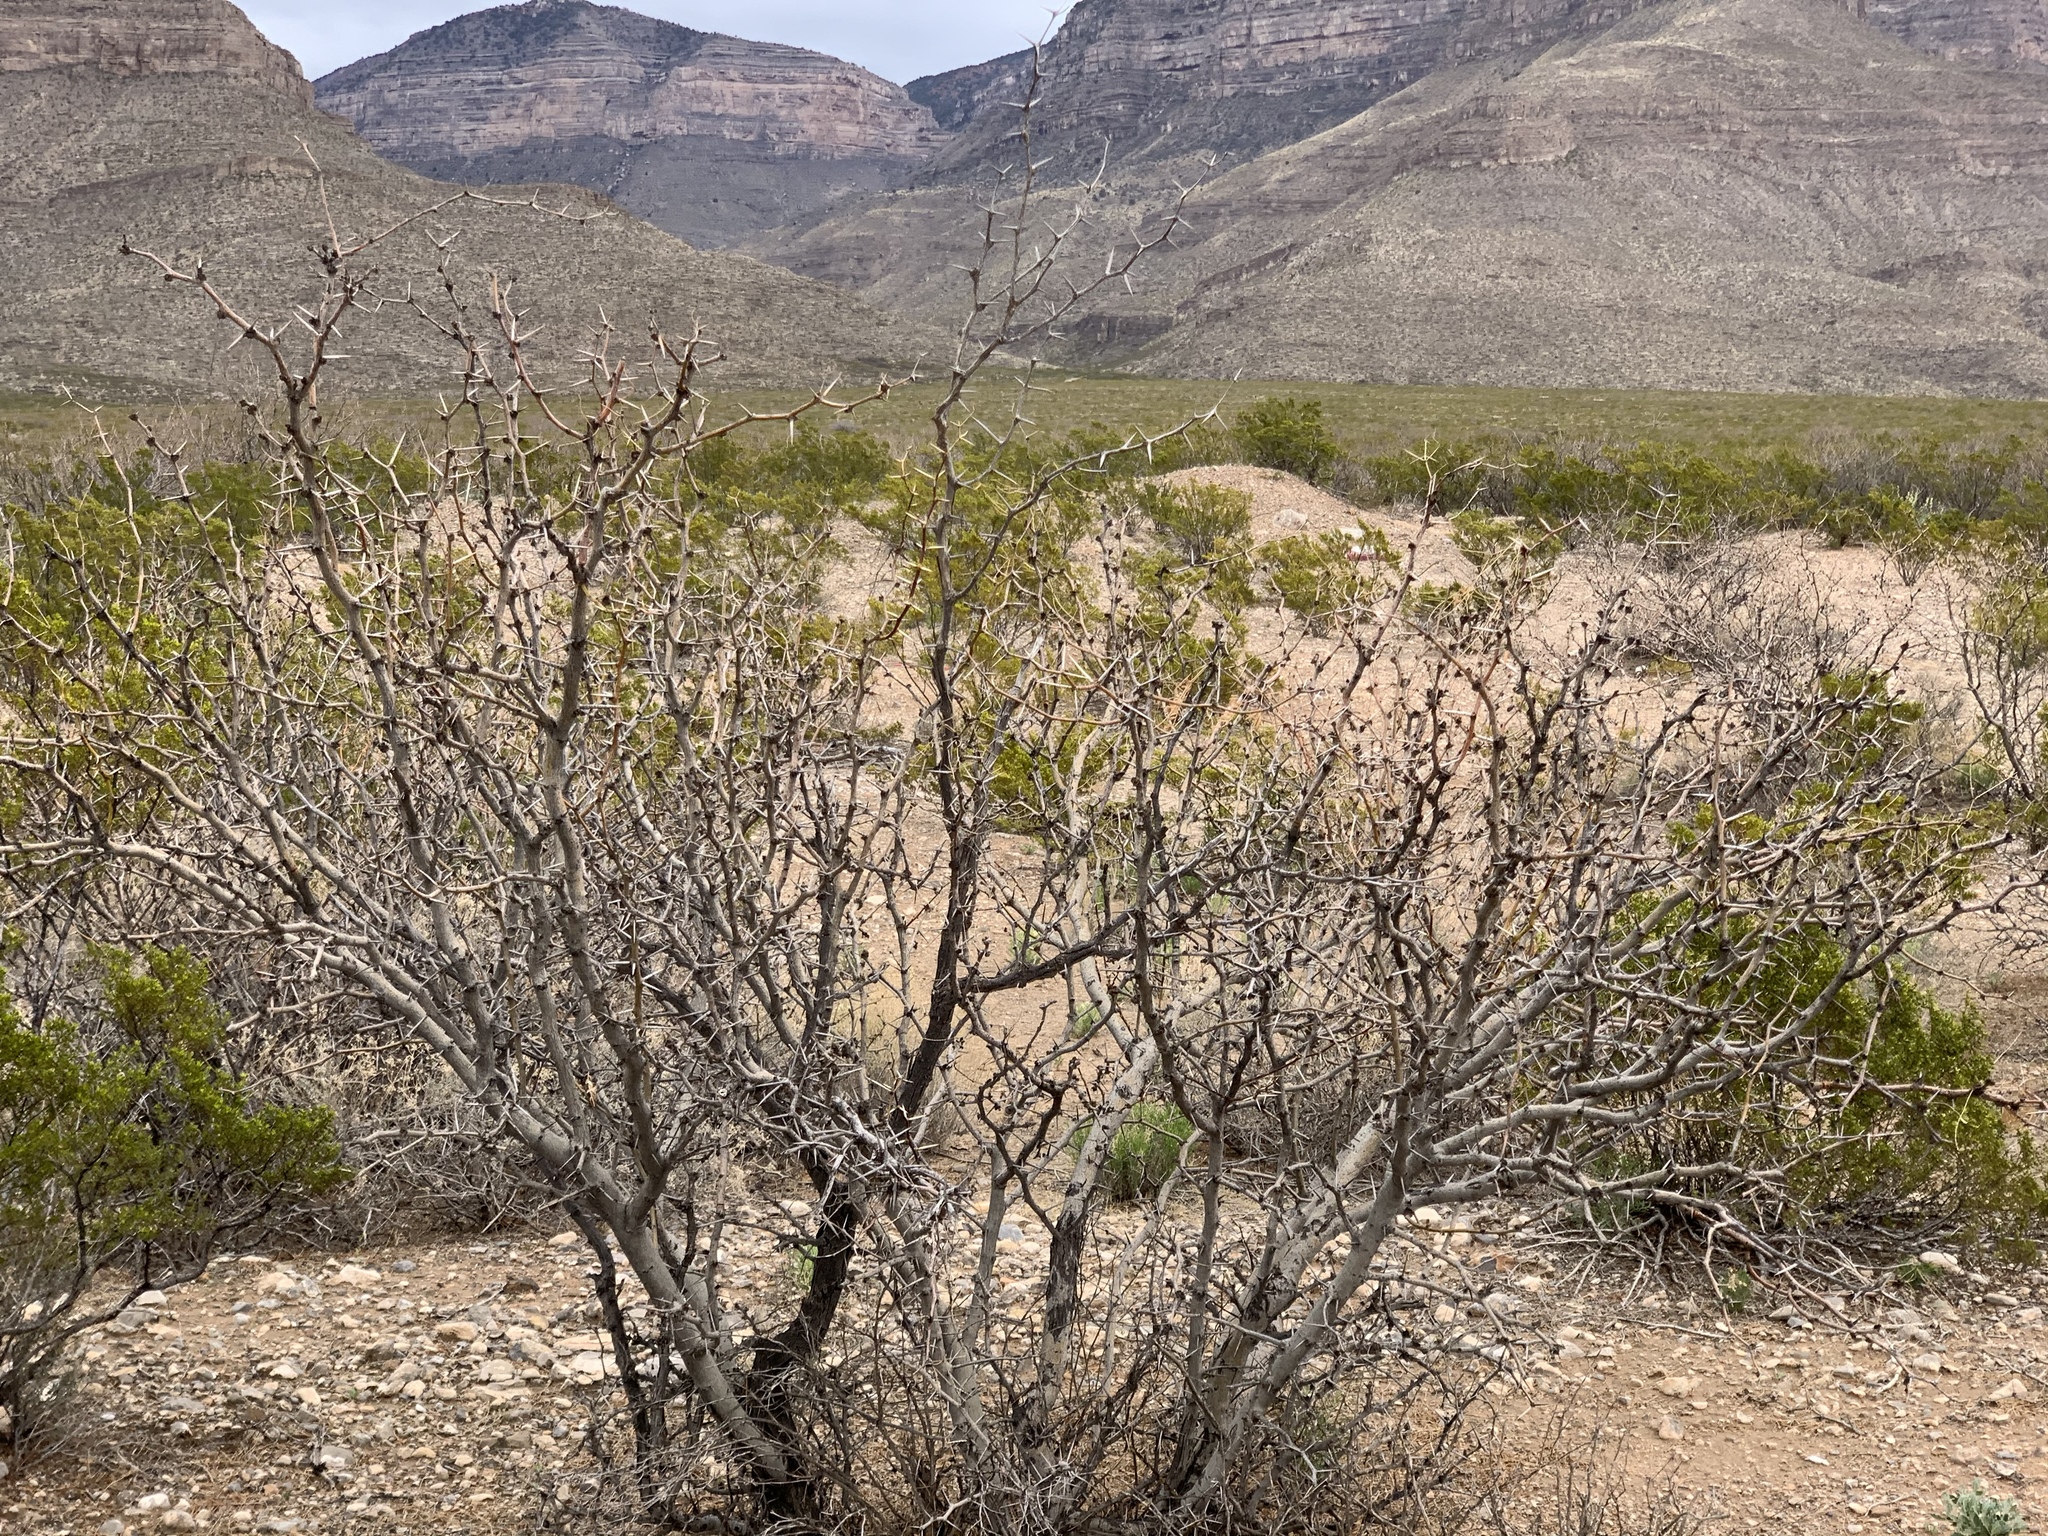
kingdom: Plantae
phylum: Tracheophyta
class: Magnoliopsida
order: Fabales
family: Fabaceae
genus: Prosopis
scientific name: Prosopis glandulosa
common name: Honey mesquite
